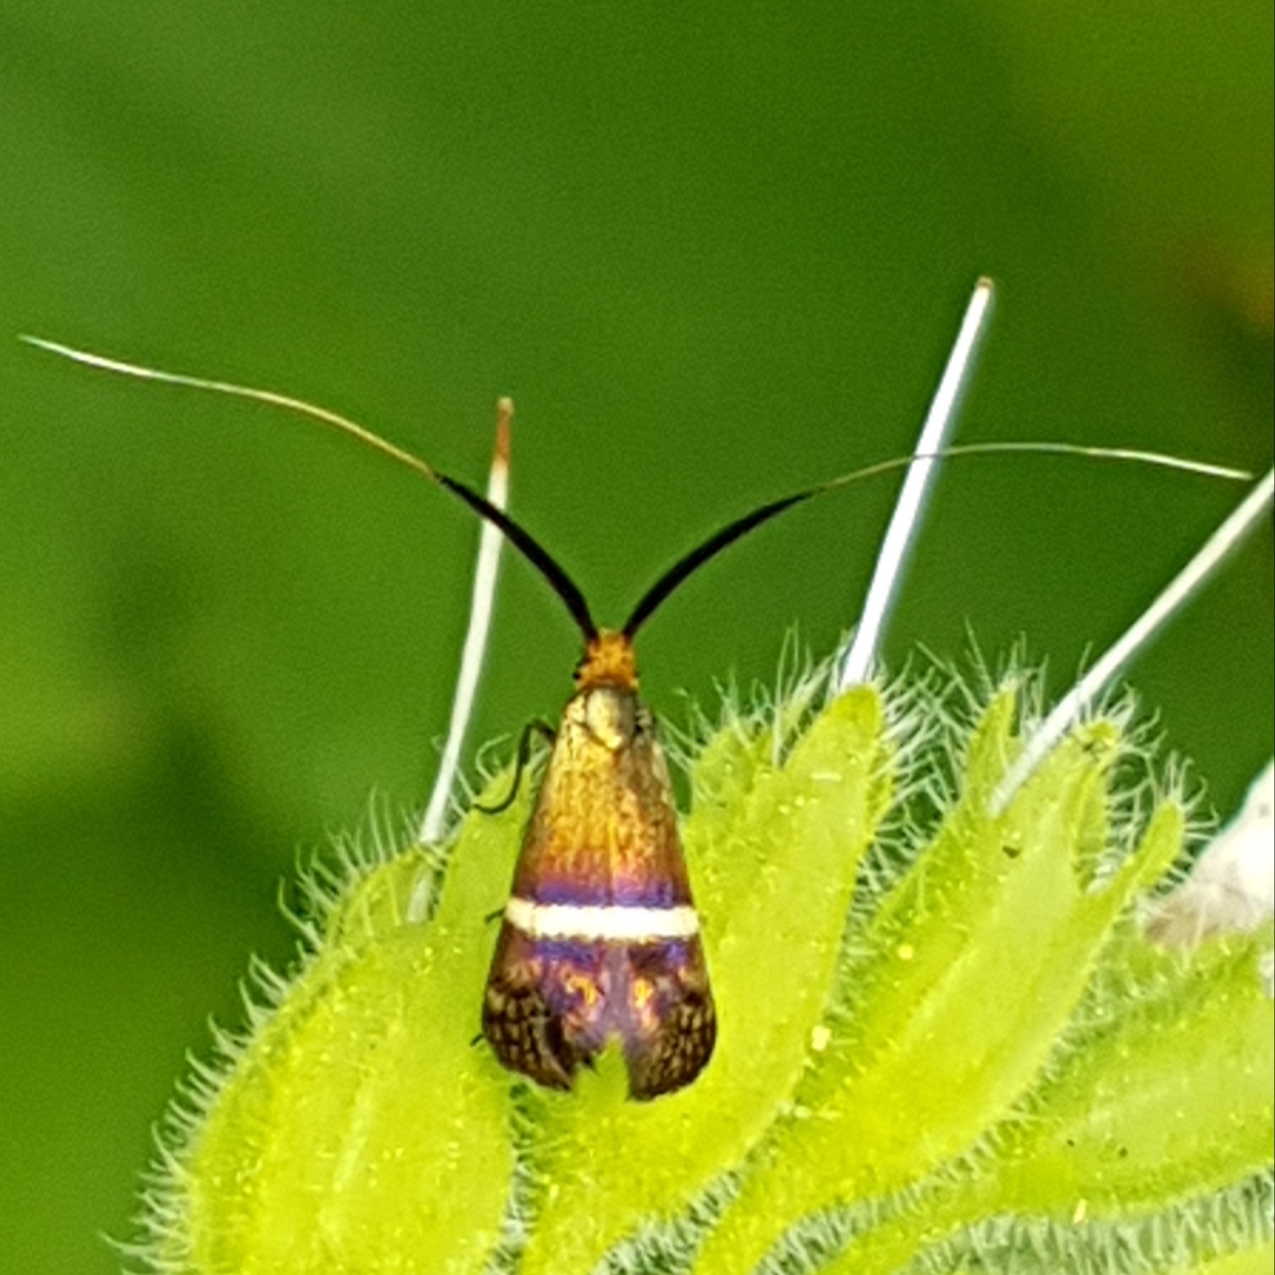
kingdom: Animalia
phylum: Arthropoda
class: Insecta
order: Lepidoptera
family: Adelidae
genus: Adela
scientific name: Adela australis
